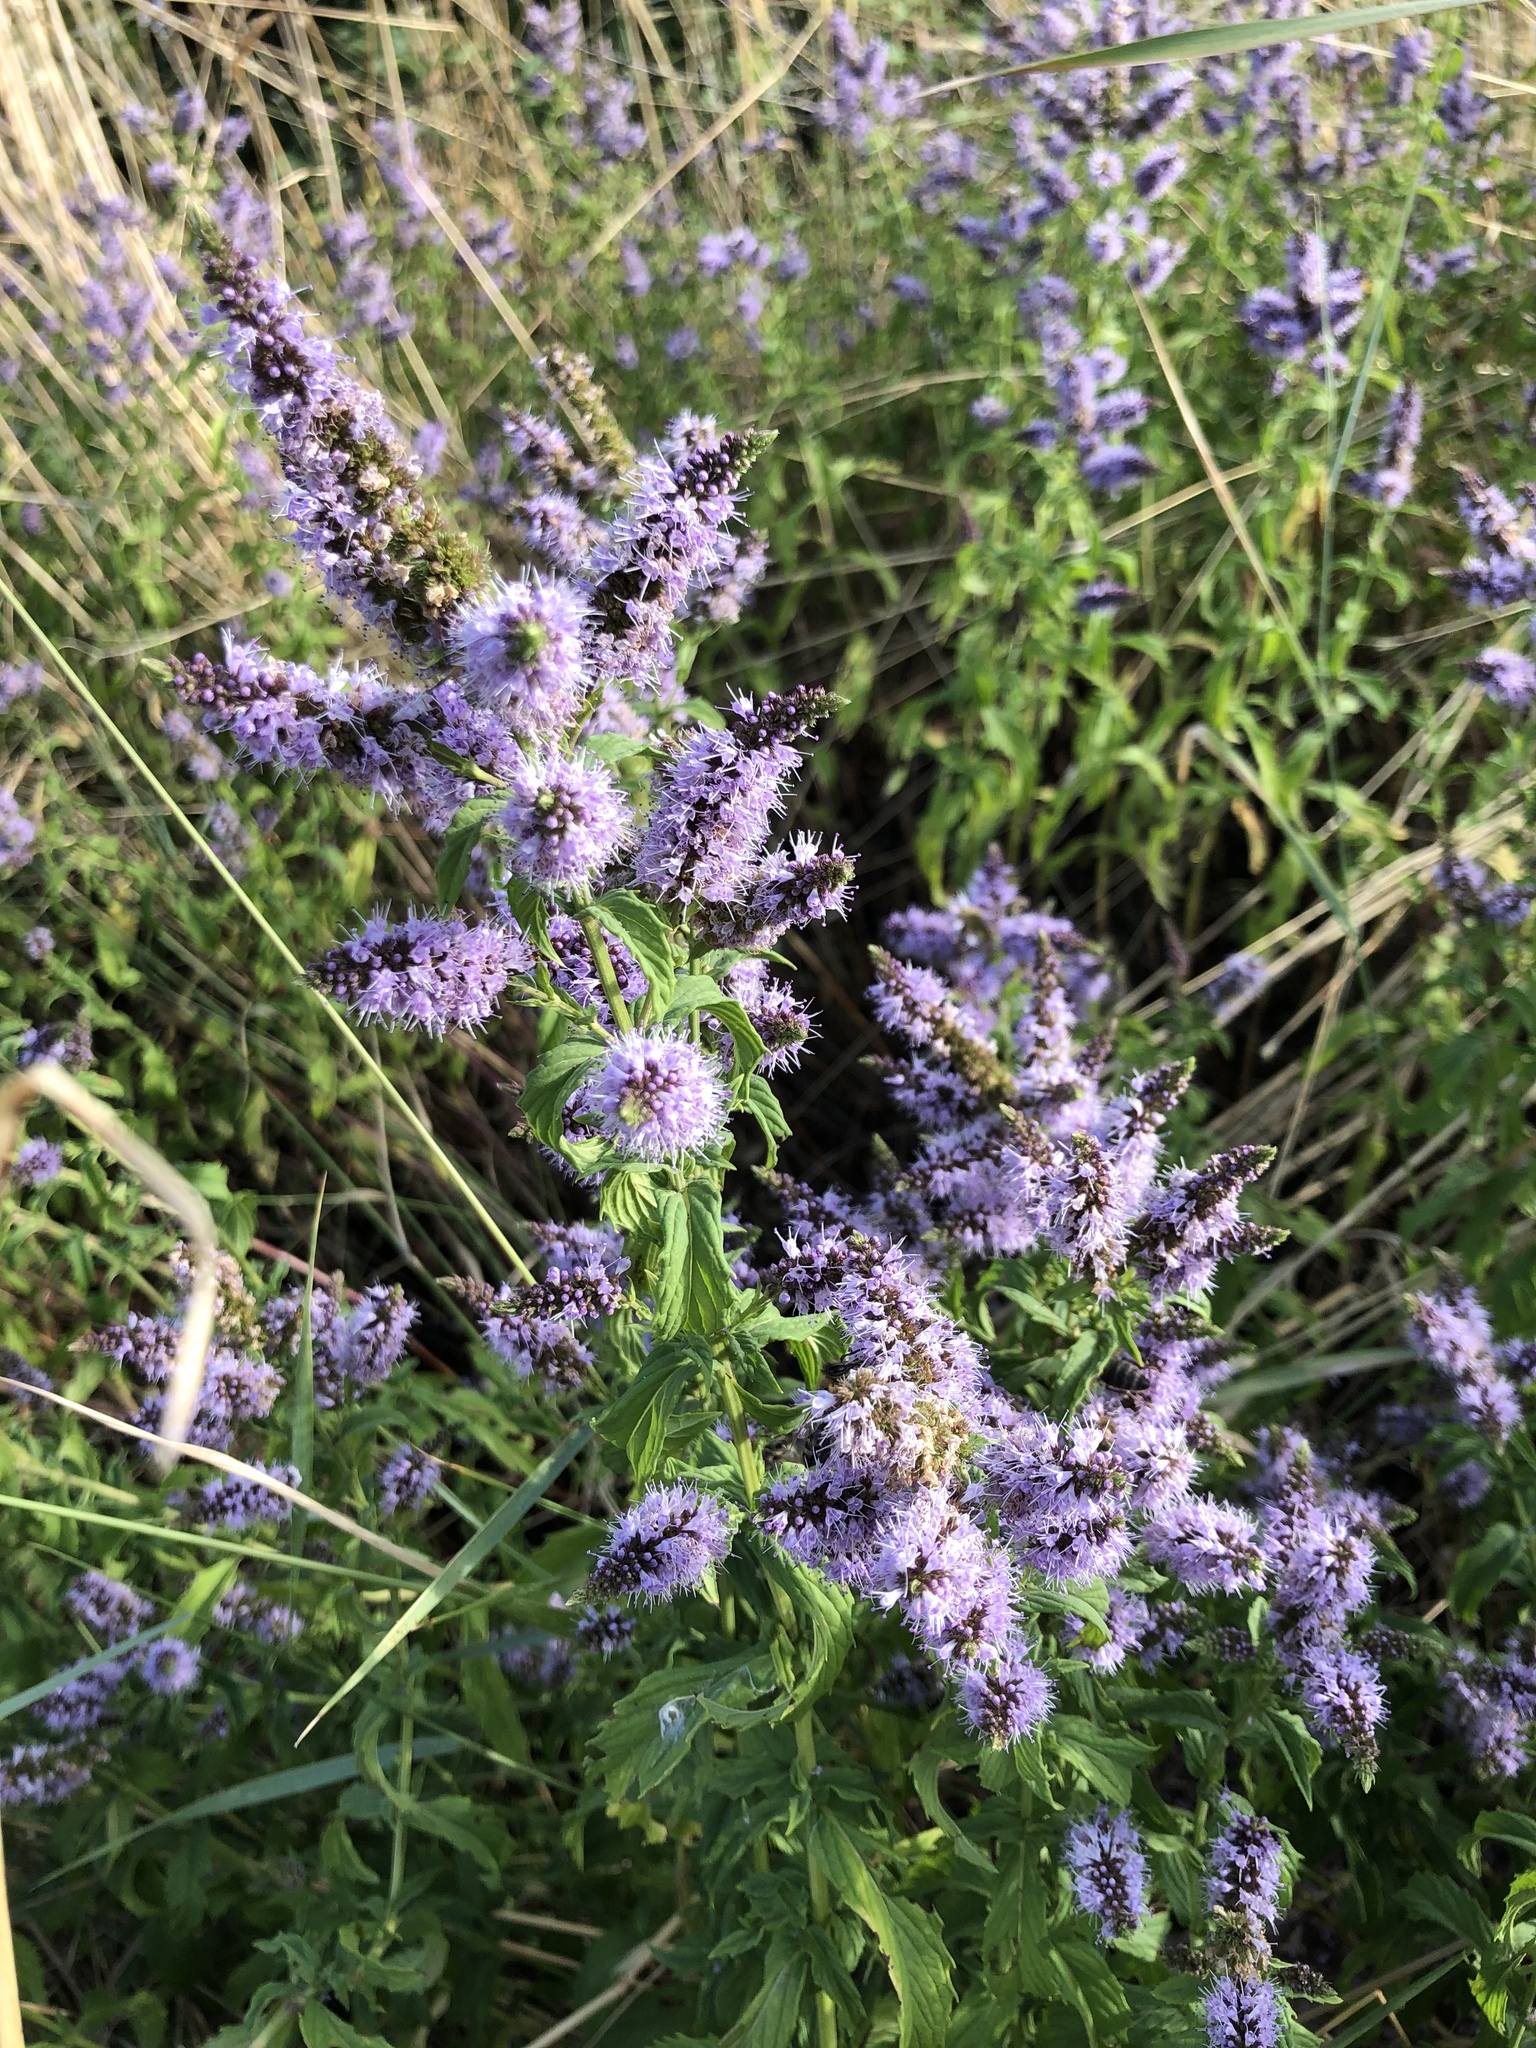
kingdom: Plantae
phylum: Tracheophyta
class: Magnoliopsida
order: Lamiales
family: Lamiaceae
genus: Mentha
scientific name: Mentha longifolia
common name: Horse mint
